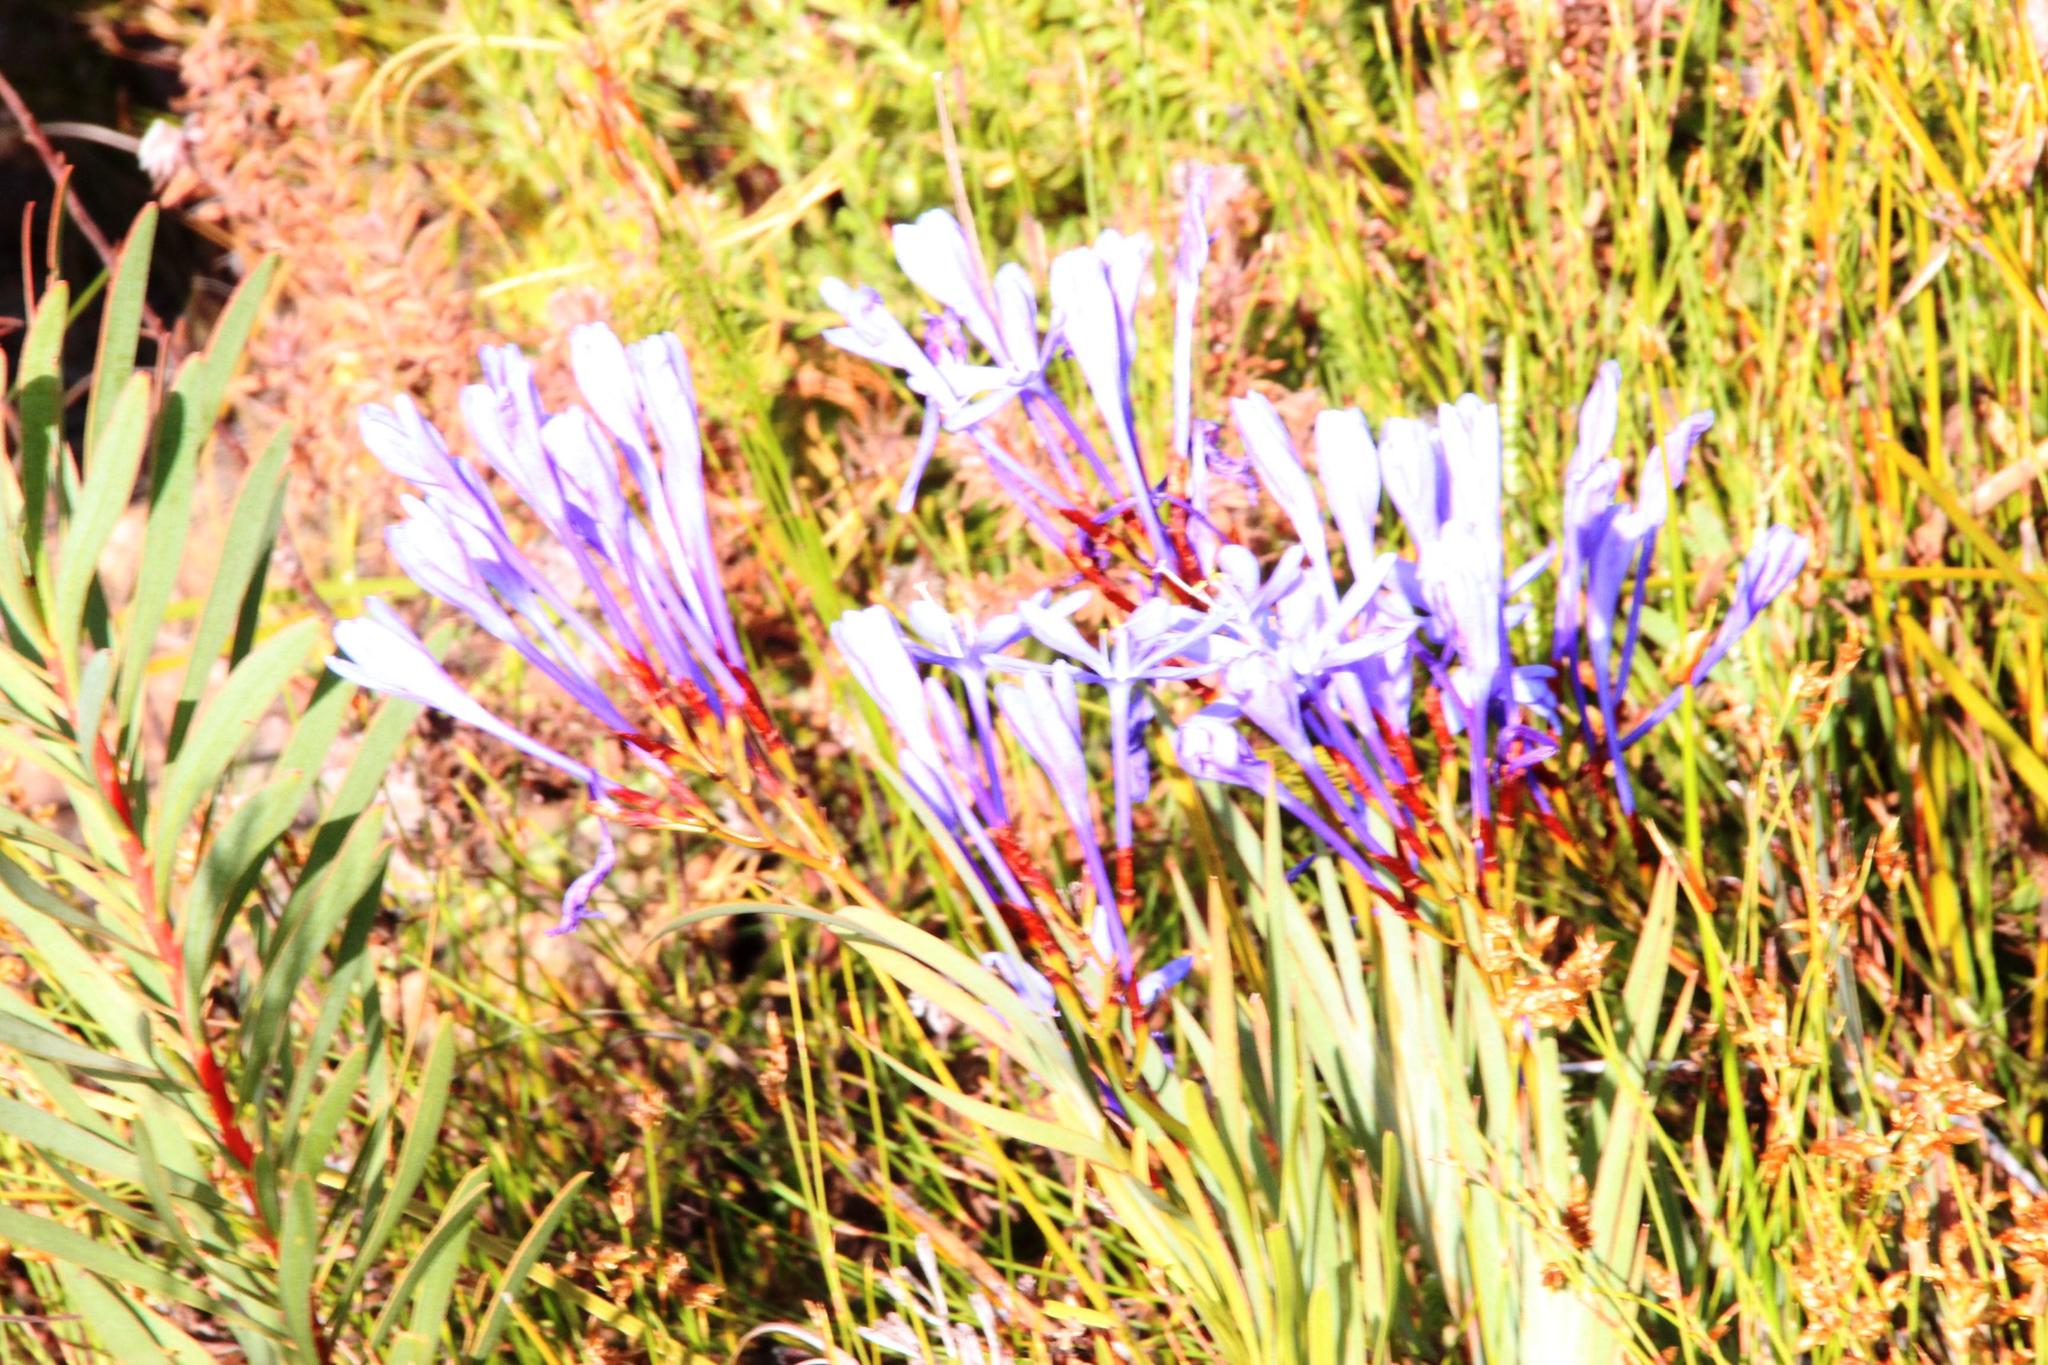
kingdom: Plantae
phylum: Tracheophyta
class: Liliopsida
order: Asparagales
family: Iridaceae
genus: Nivenia
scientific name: Nivenia stokoei
